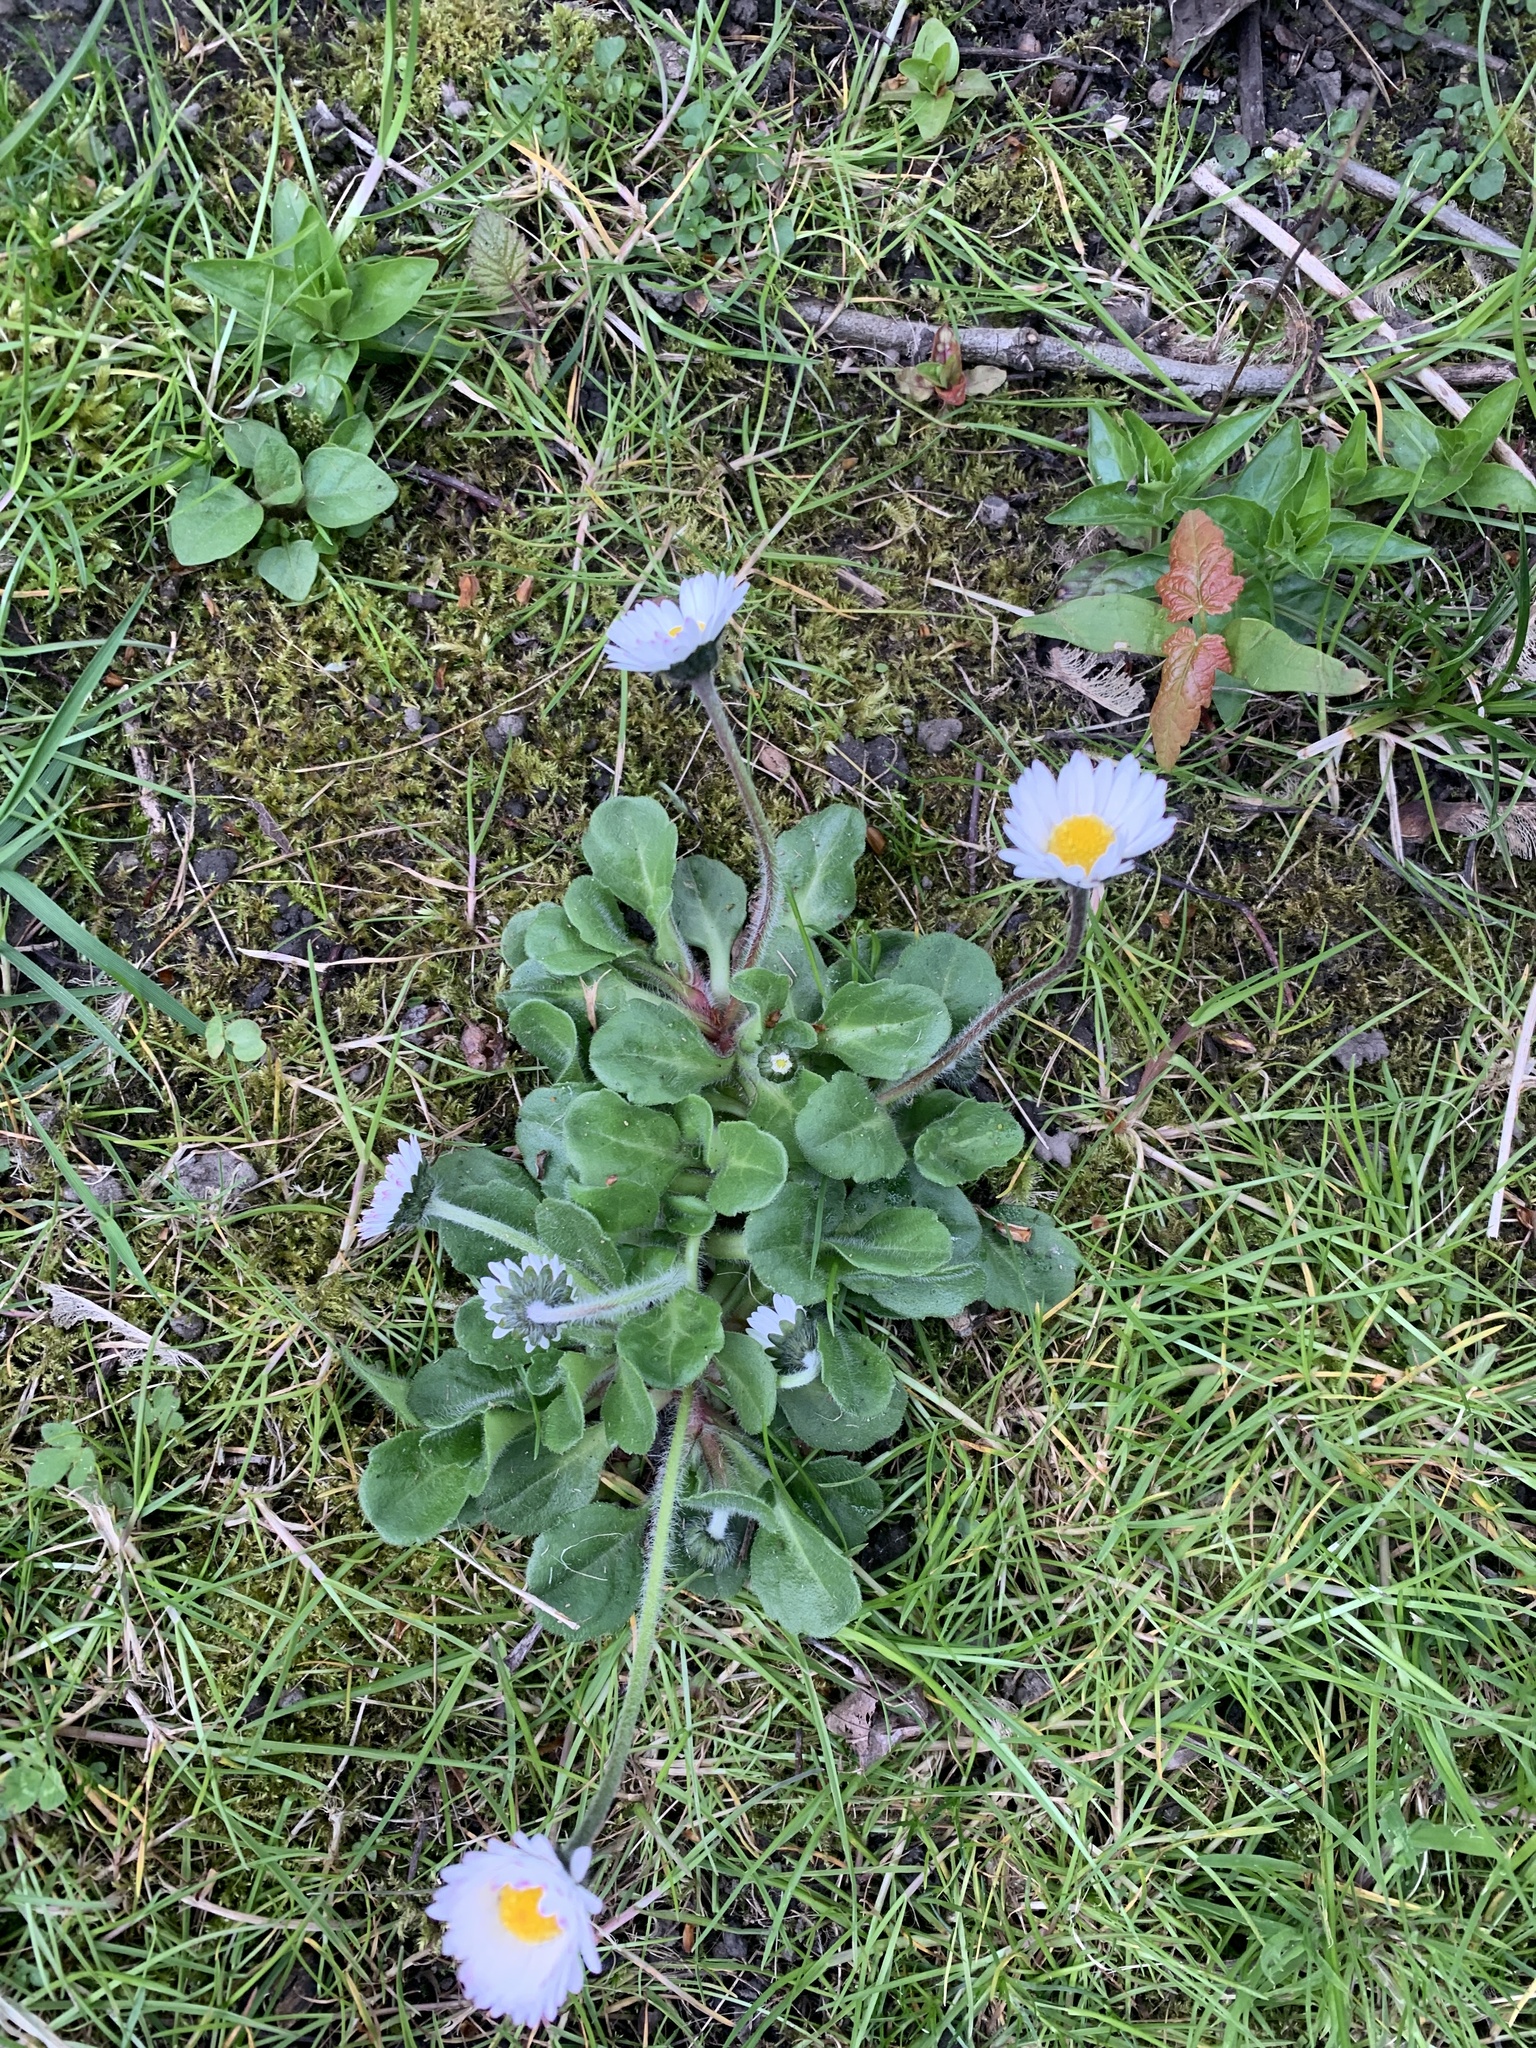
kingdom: Plantae
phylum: Tracheophyta
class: Magnoliopsida
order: Asterales
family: Asteraceae
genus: Bellis
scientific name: Bellis perennis
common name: Lawndaisy
